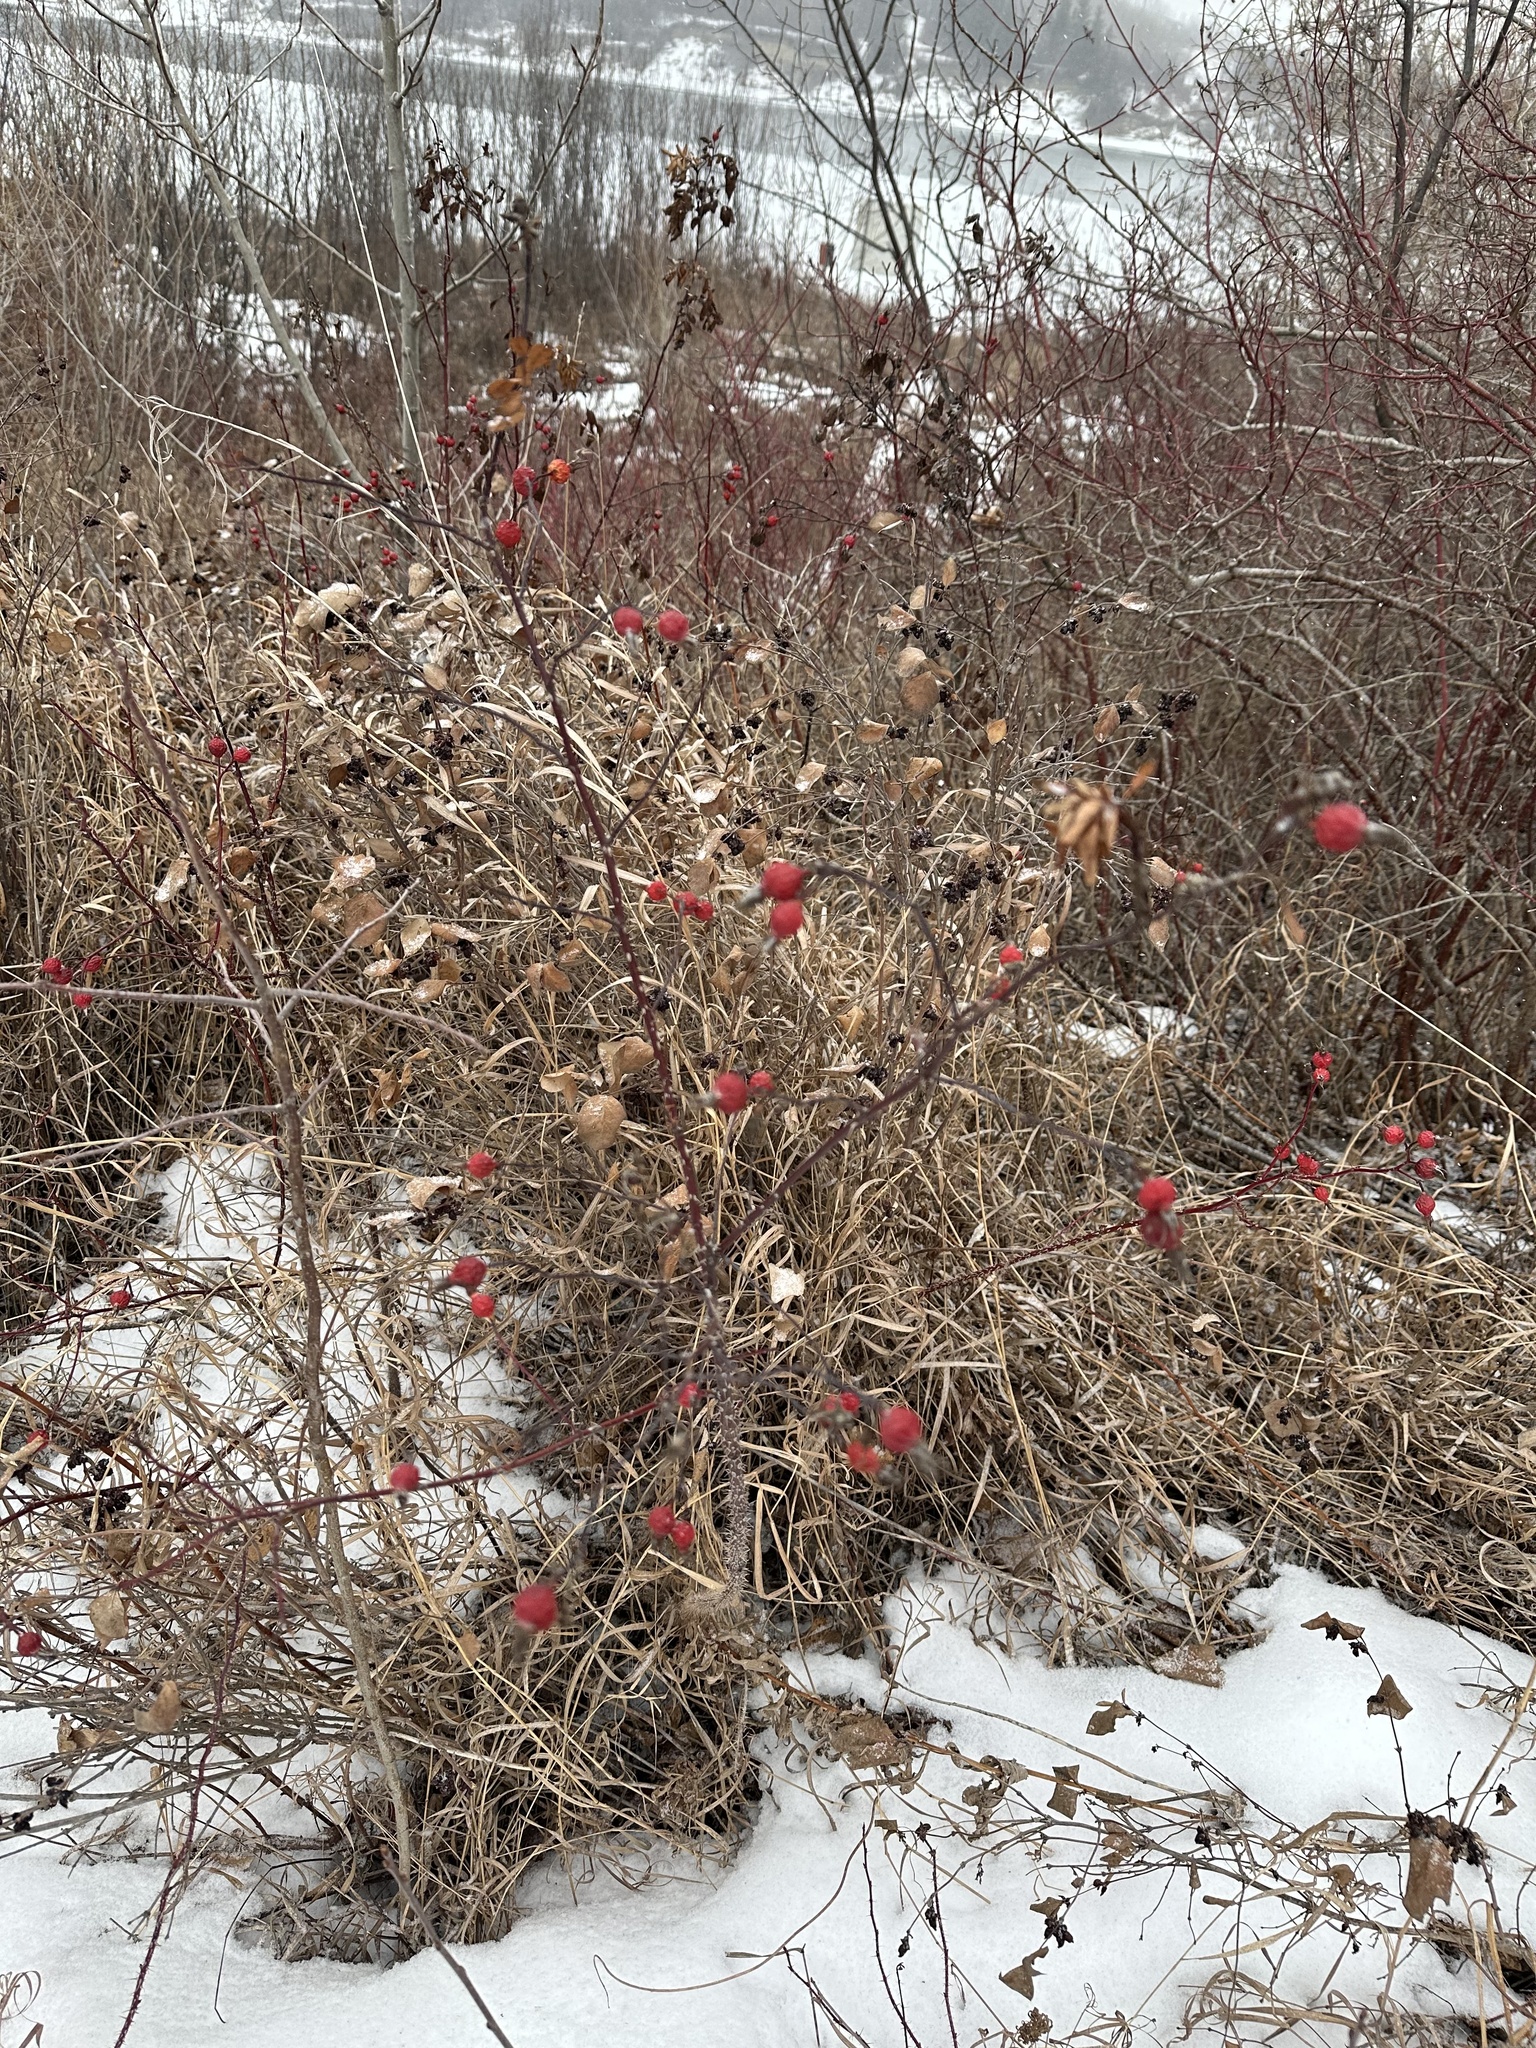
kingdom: Plantae
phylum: Tracheophyta
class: Magnoliopsida
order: Rosales
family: Rosaceae
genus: Rosa
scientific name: Rosa woodsii
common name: Woods's rose
